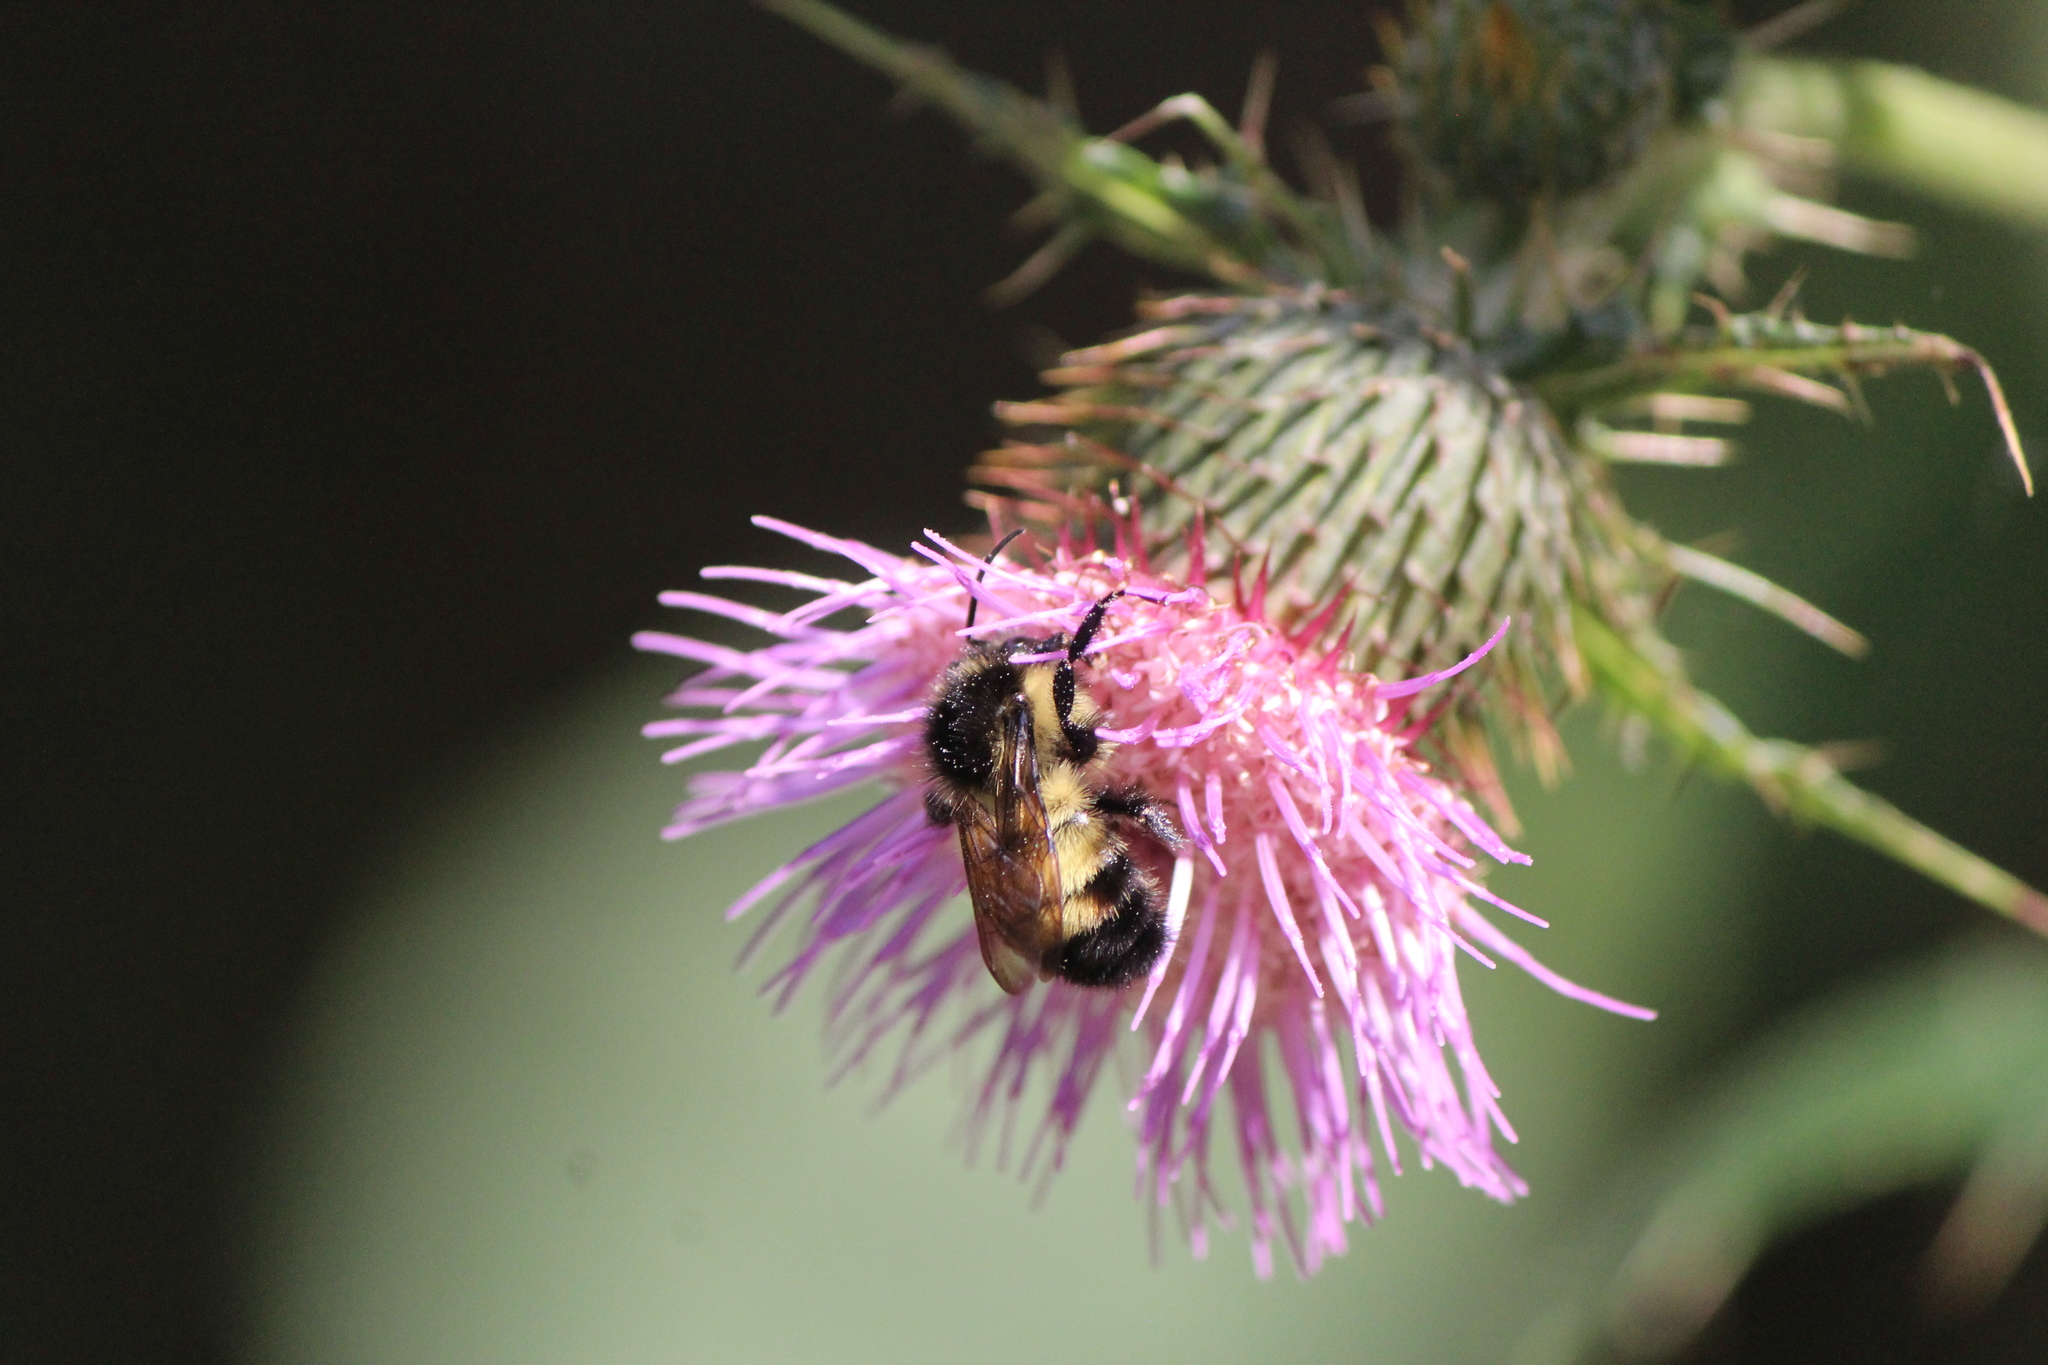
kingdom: Animalia
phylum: Arthropoda
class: Insecta
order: Hymenoptera
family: Apidae
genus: Bombus
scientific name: Bombus ephippiatus
